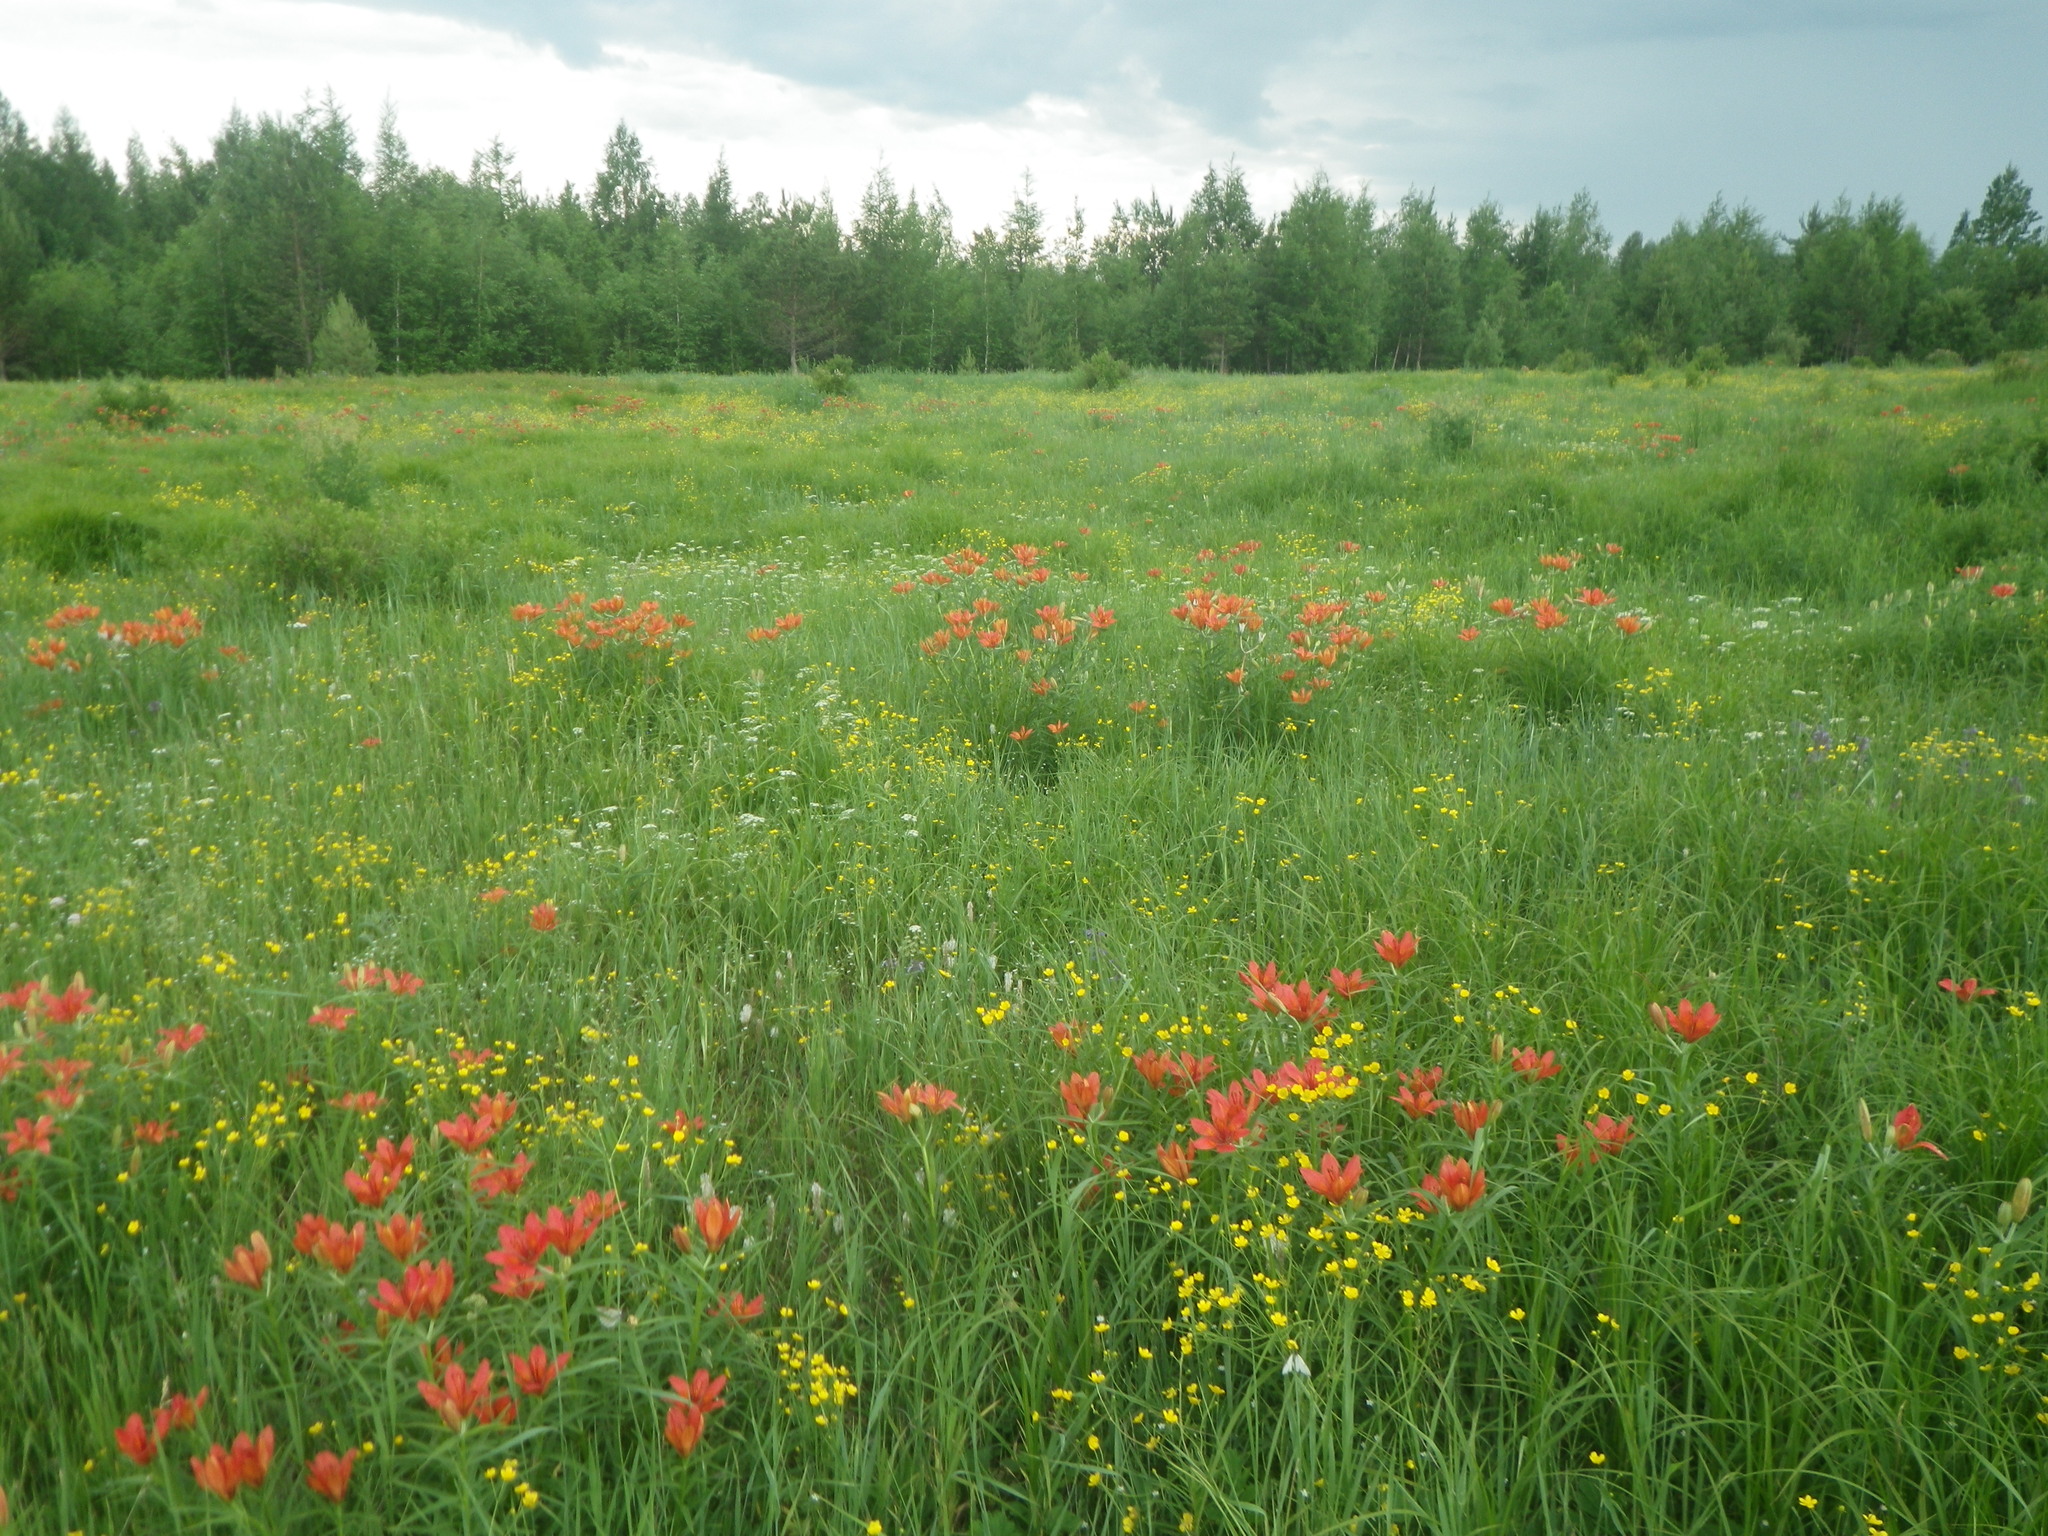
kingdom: Plantae
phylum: Tracheophyta
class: Liliopsida
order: Liliales
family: Liliaceae
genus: Lilium
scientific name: Lilium pensylvanicum
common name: Candlestick lily
